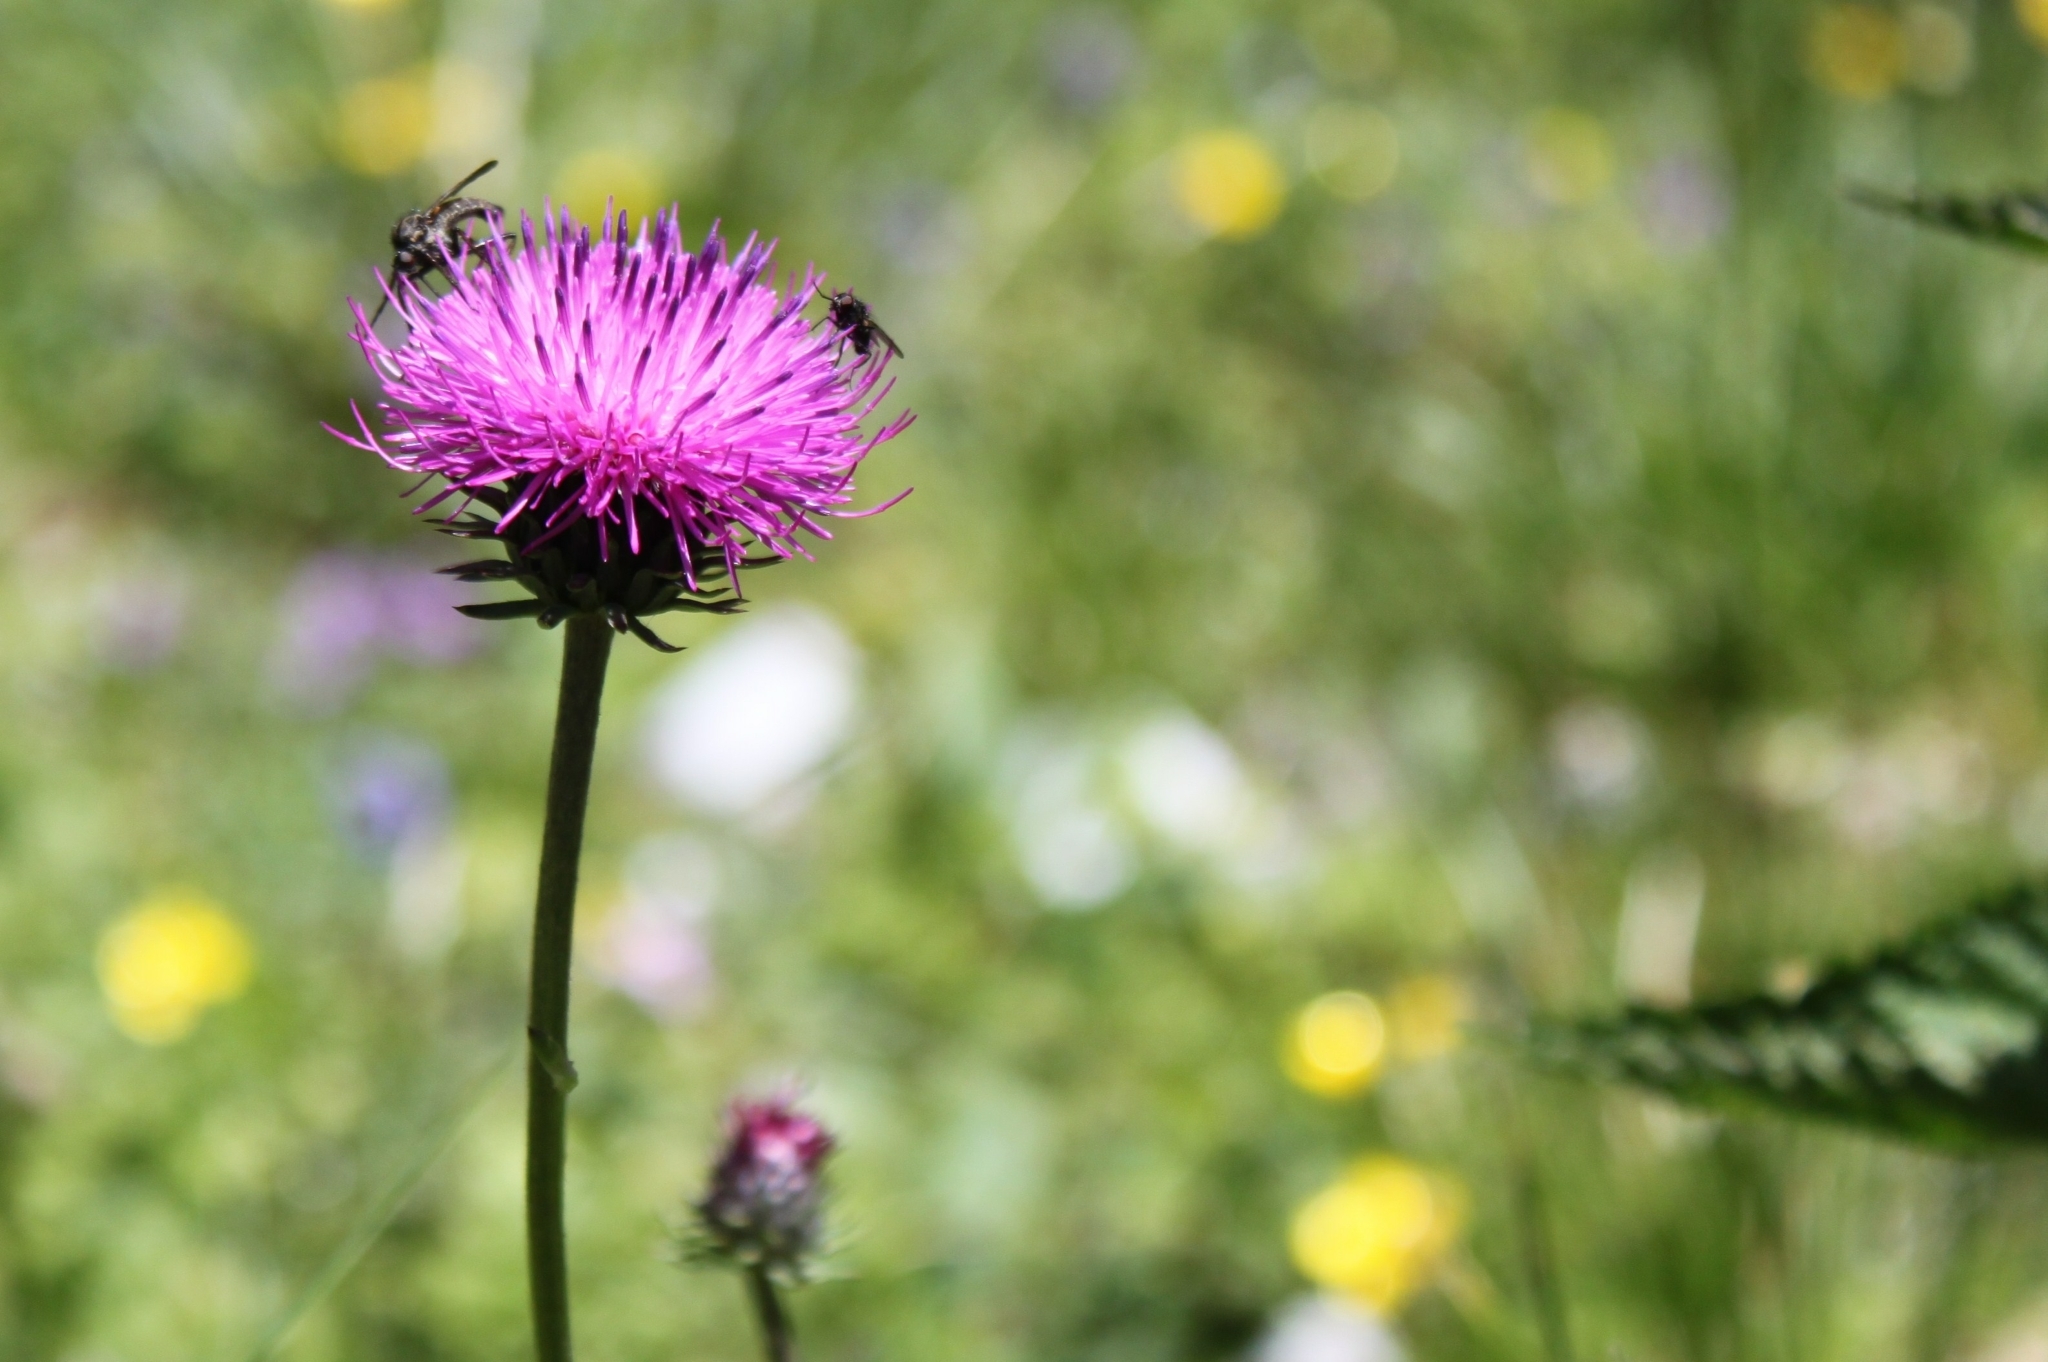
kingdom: Plantae
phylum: Tracheophyta
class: Magnoliopsida
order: Asterales
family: Asteraceae
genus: Carduus
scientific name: Carduus defloratus
